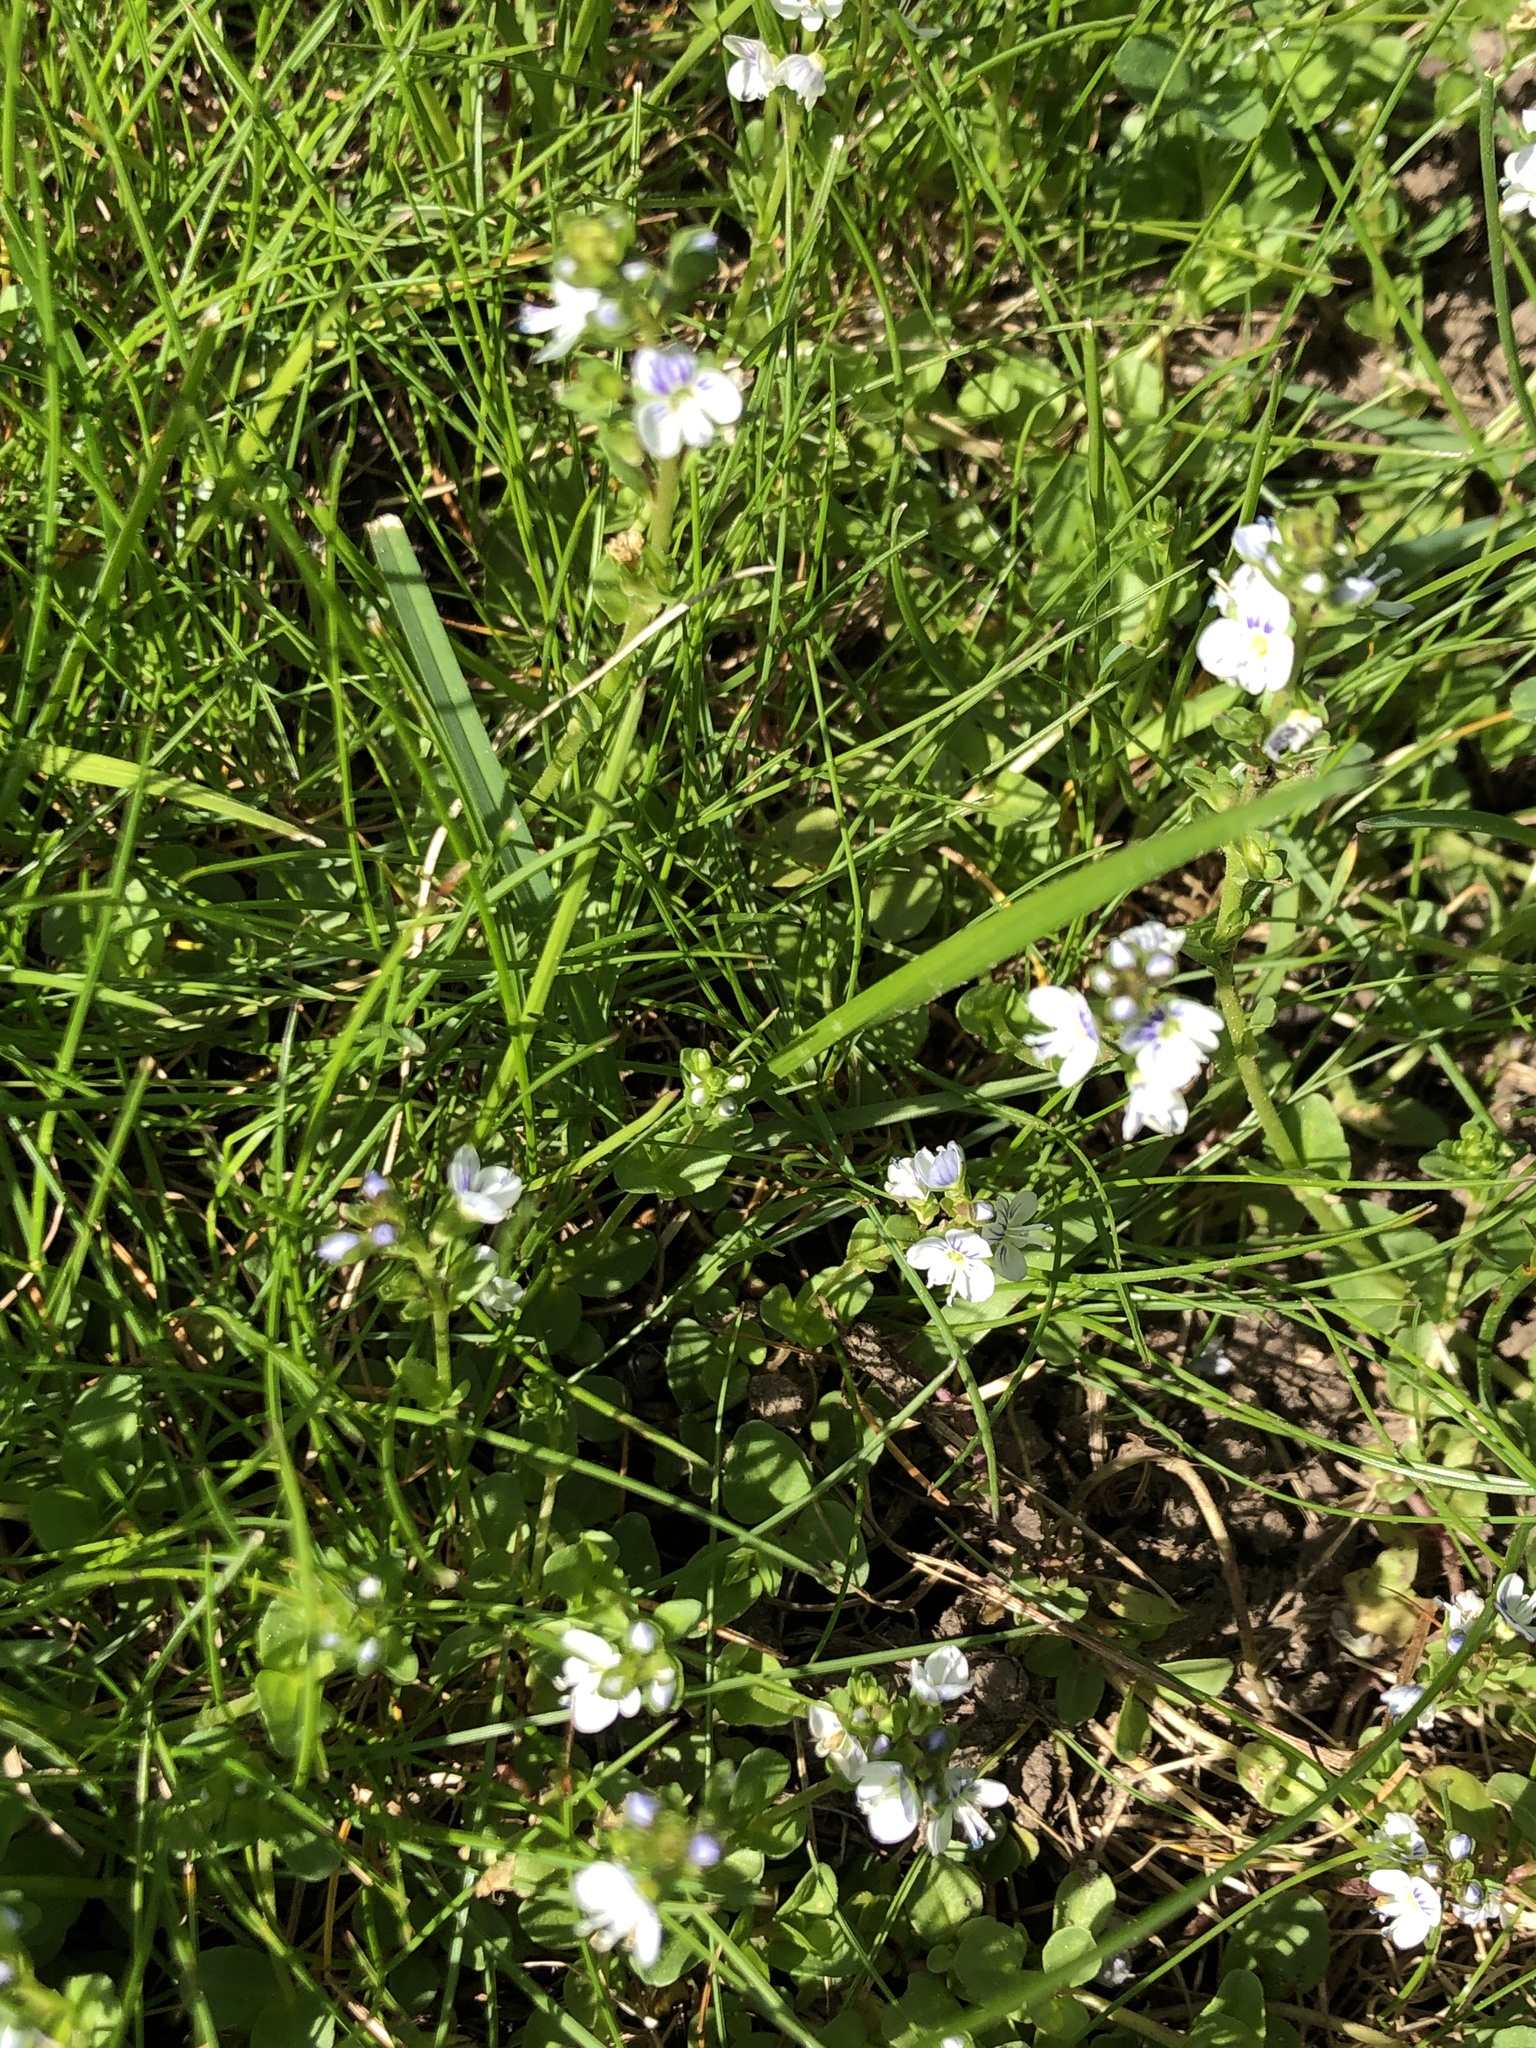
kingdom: Plantae
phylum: Tracheophyta
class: Magnoliopsida
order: Lamiales
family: Plantaginaceae
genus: Veronica
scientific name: Veronica serpyllifolia
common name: Thyme-leaved speedwell
